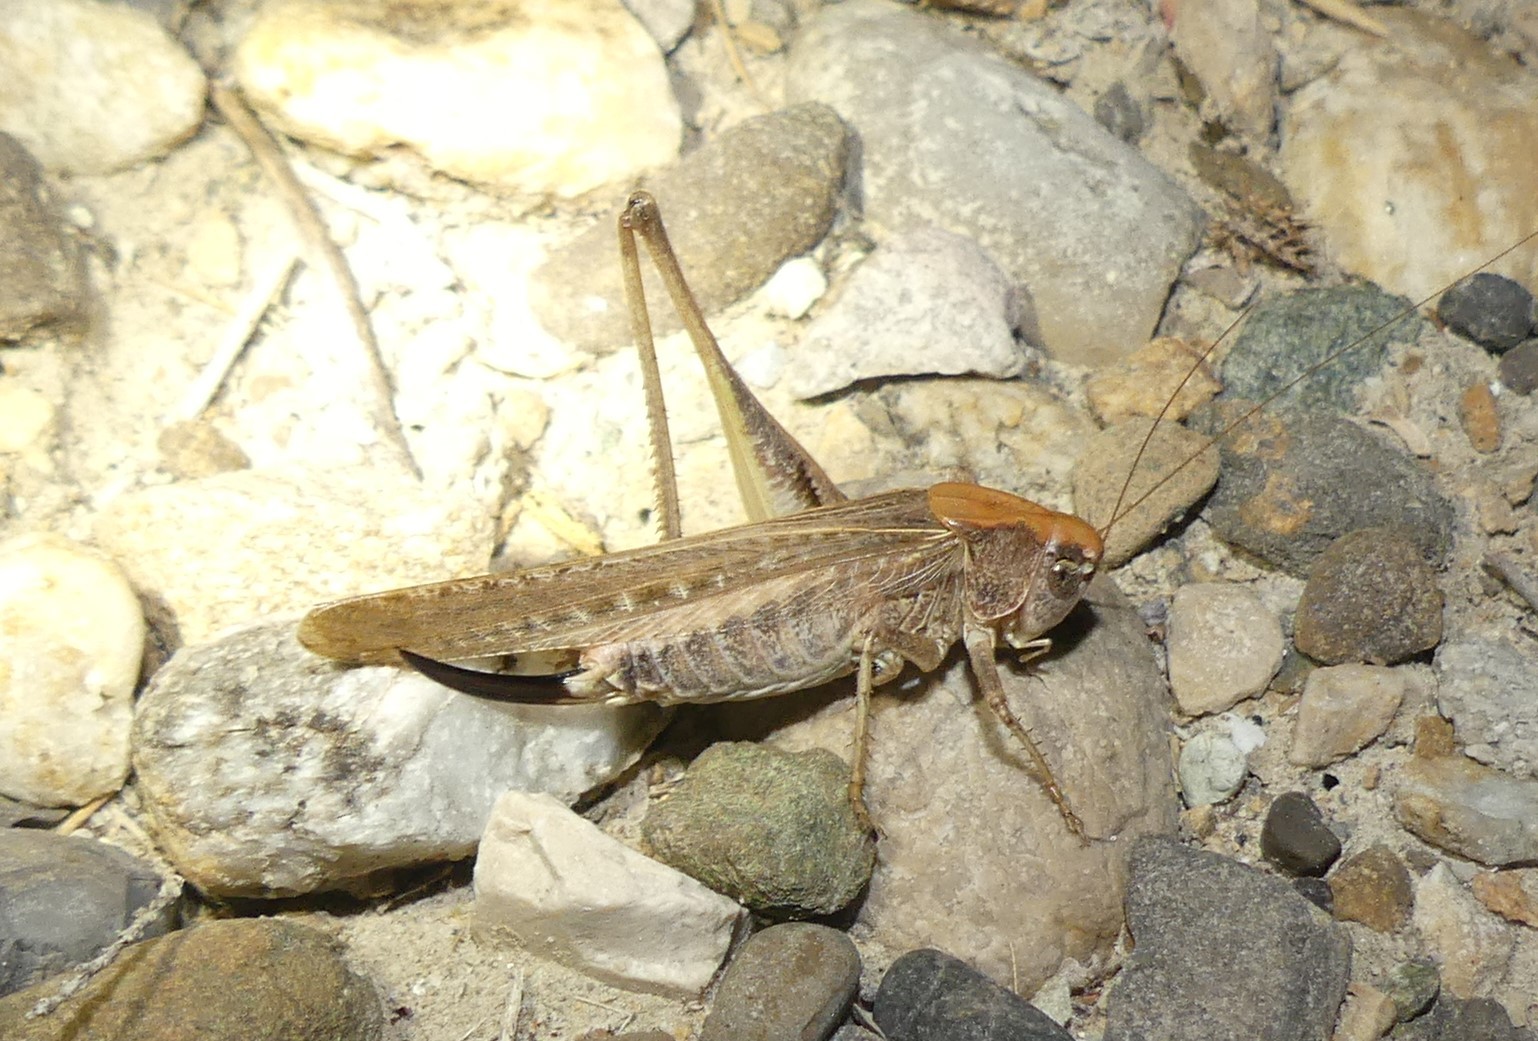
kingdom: Animalia
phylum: Arthropoda
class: Insecta
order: Orthoptera
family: Tettigoniidae
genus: Platycleis
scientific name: Platycleis affinis
